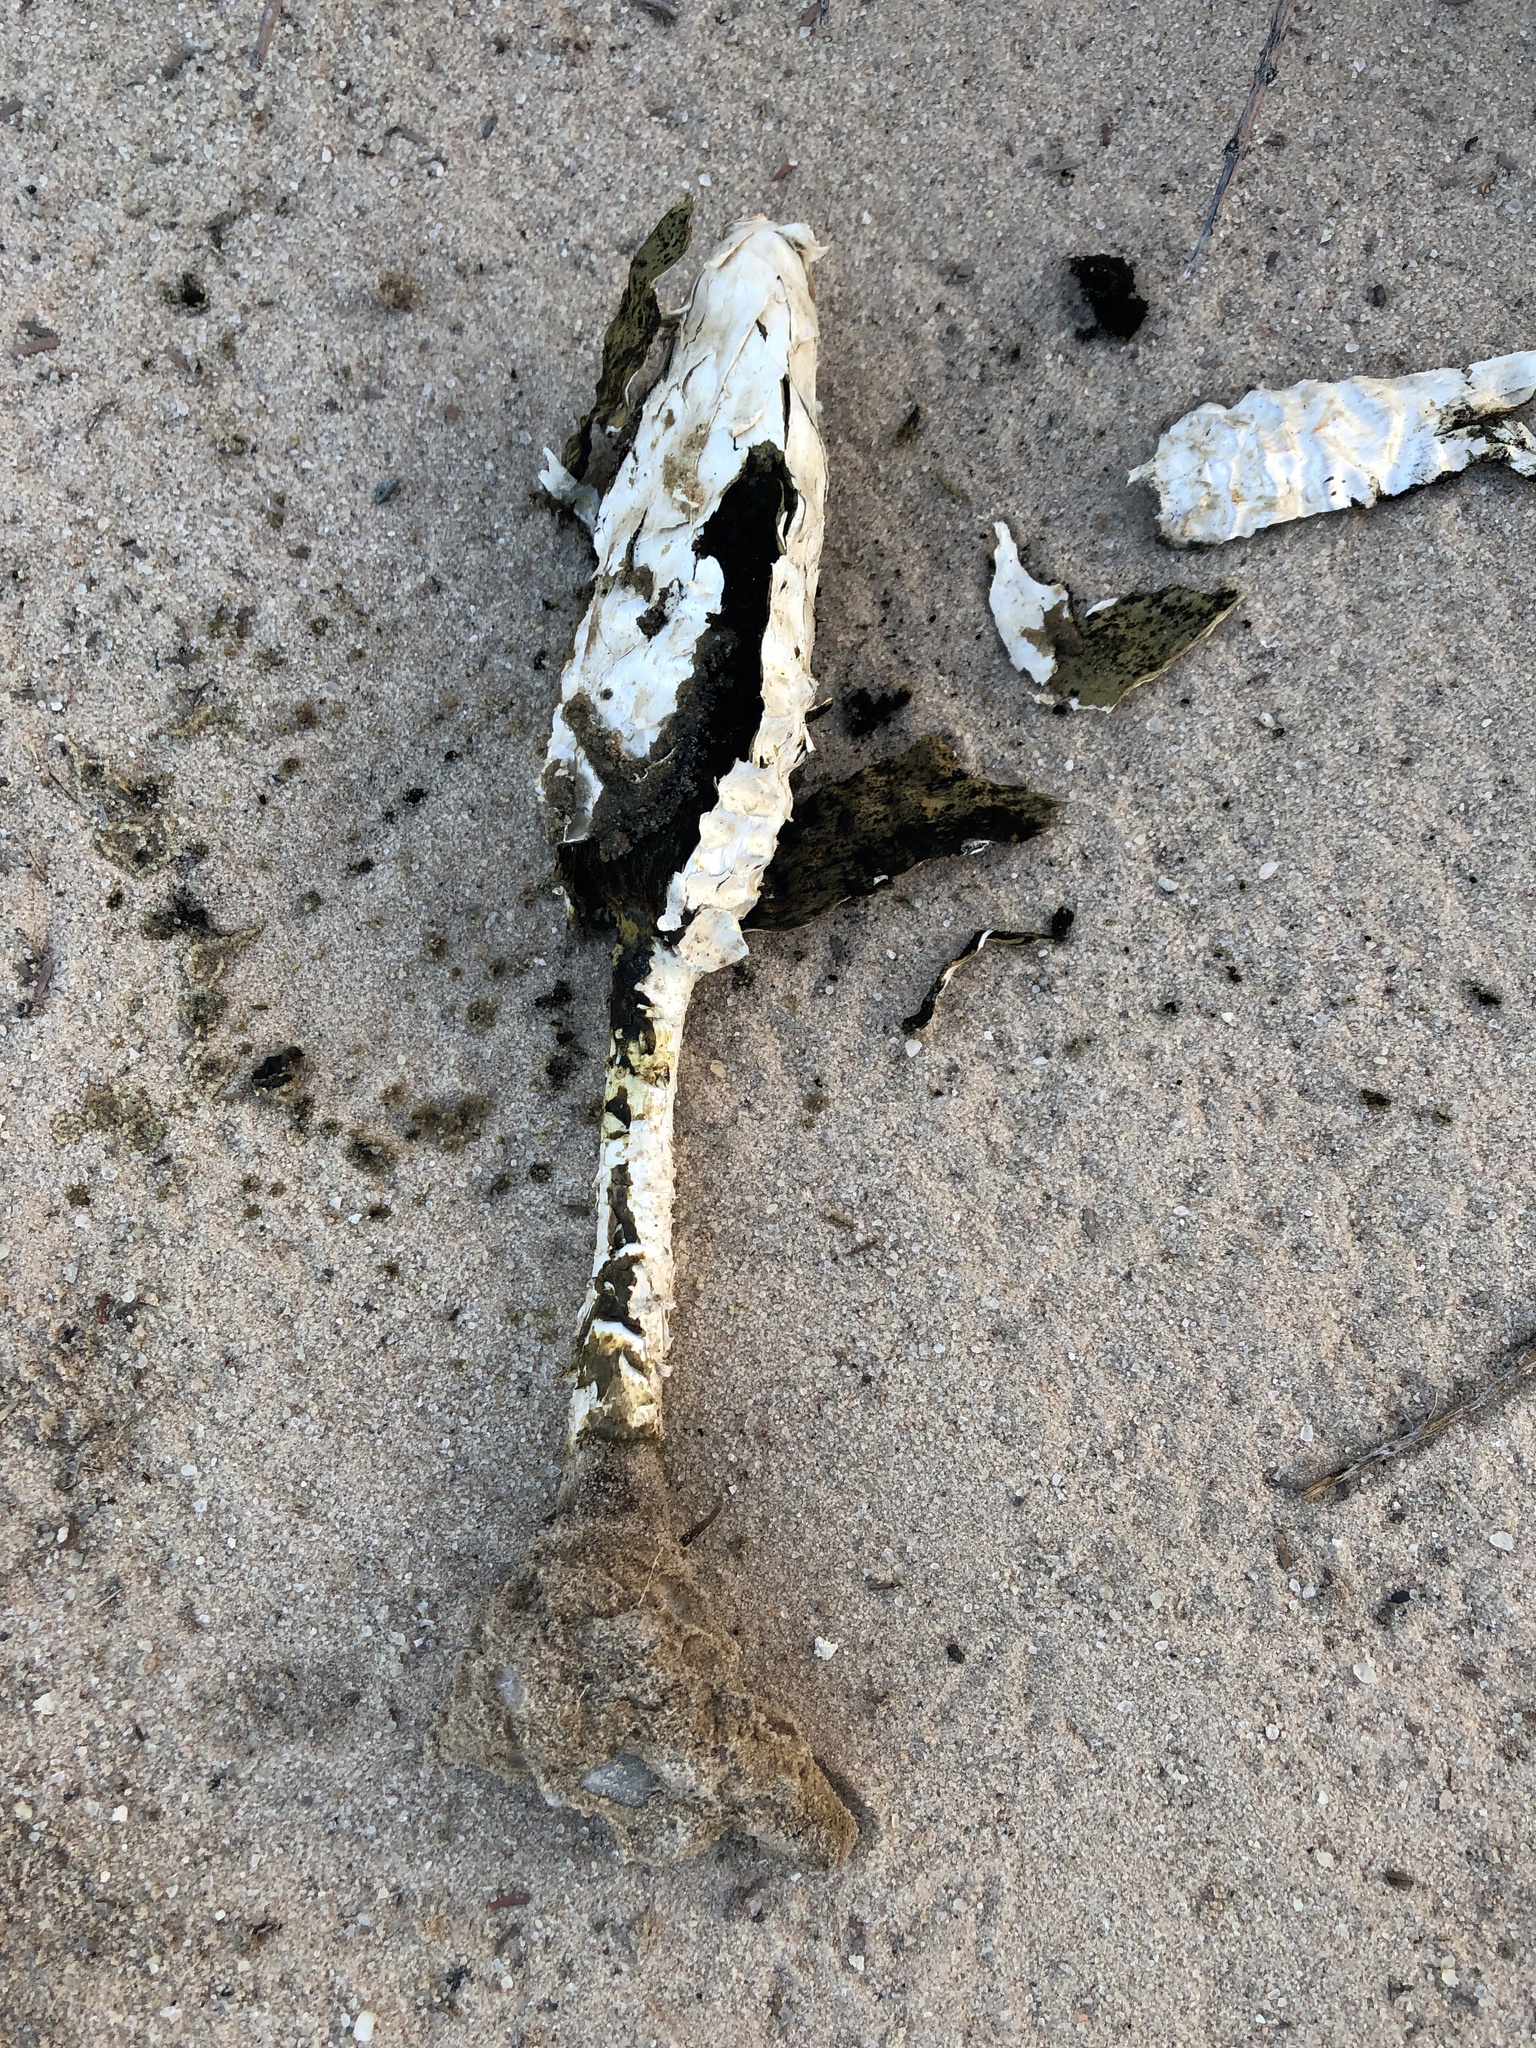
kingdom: Fungi
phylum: Basidiomycota
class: Agaricomycetes
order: Agaricales
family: Agaricaceae
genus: Podaxis
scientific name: Podaxis pistillaris
